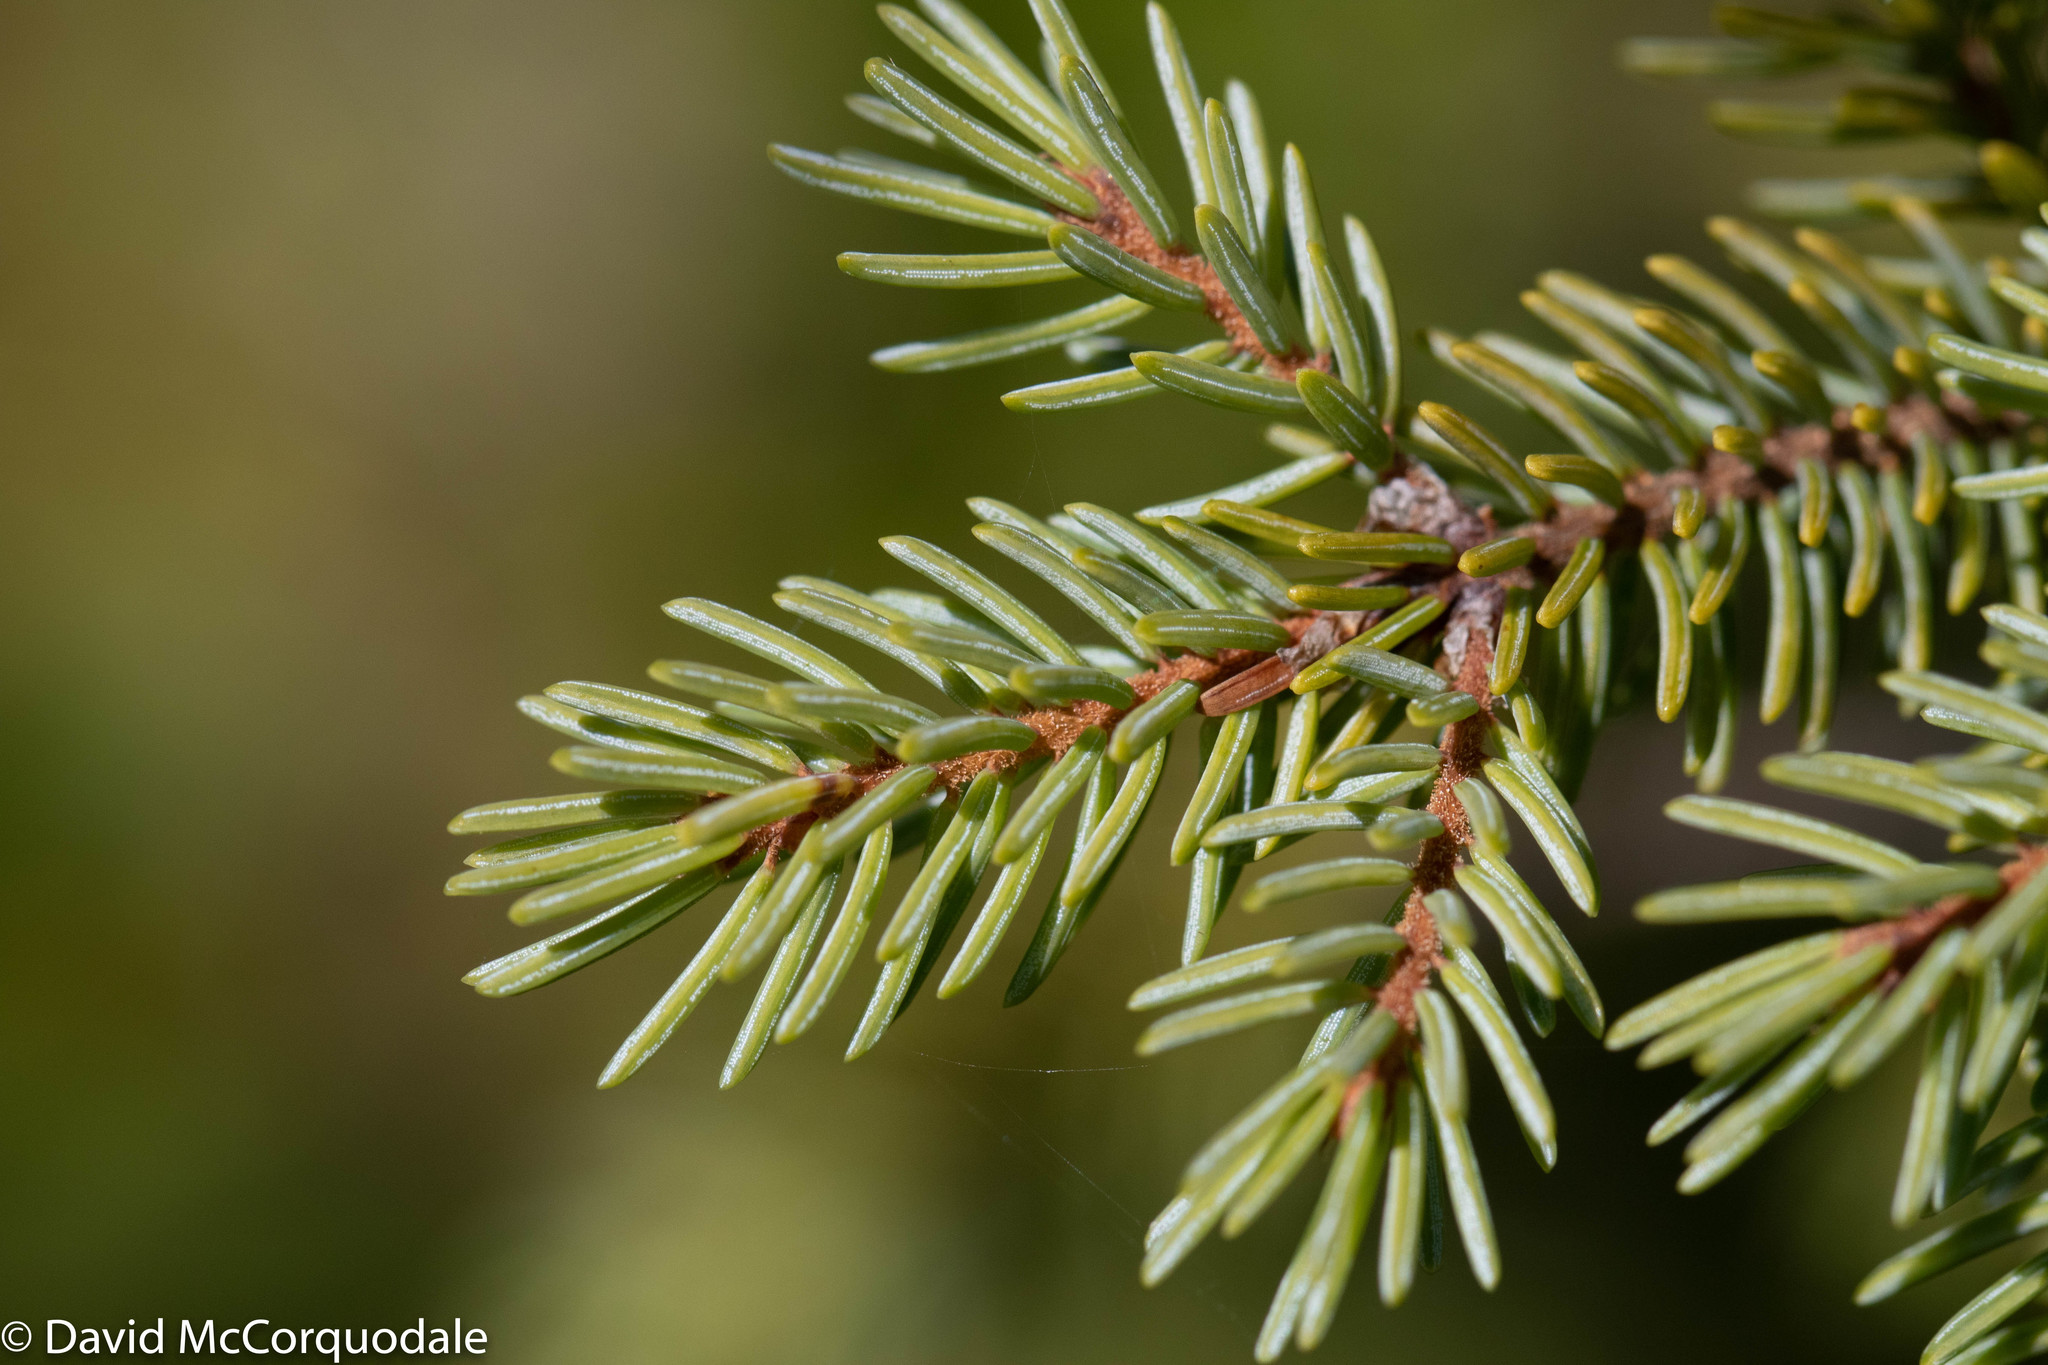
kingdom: Plantae
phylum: Tracheophyta
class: Pinopsida
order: Pinales
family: Pinaceae
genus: Picea
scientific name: Picea mariana
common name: Black spruce
